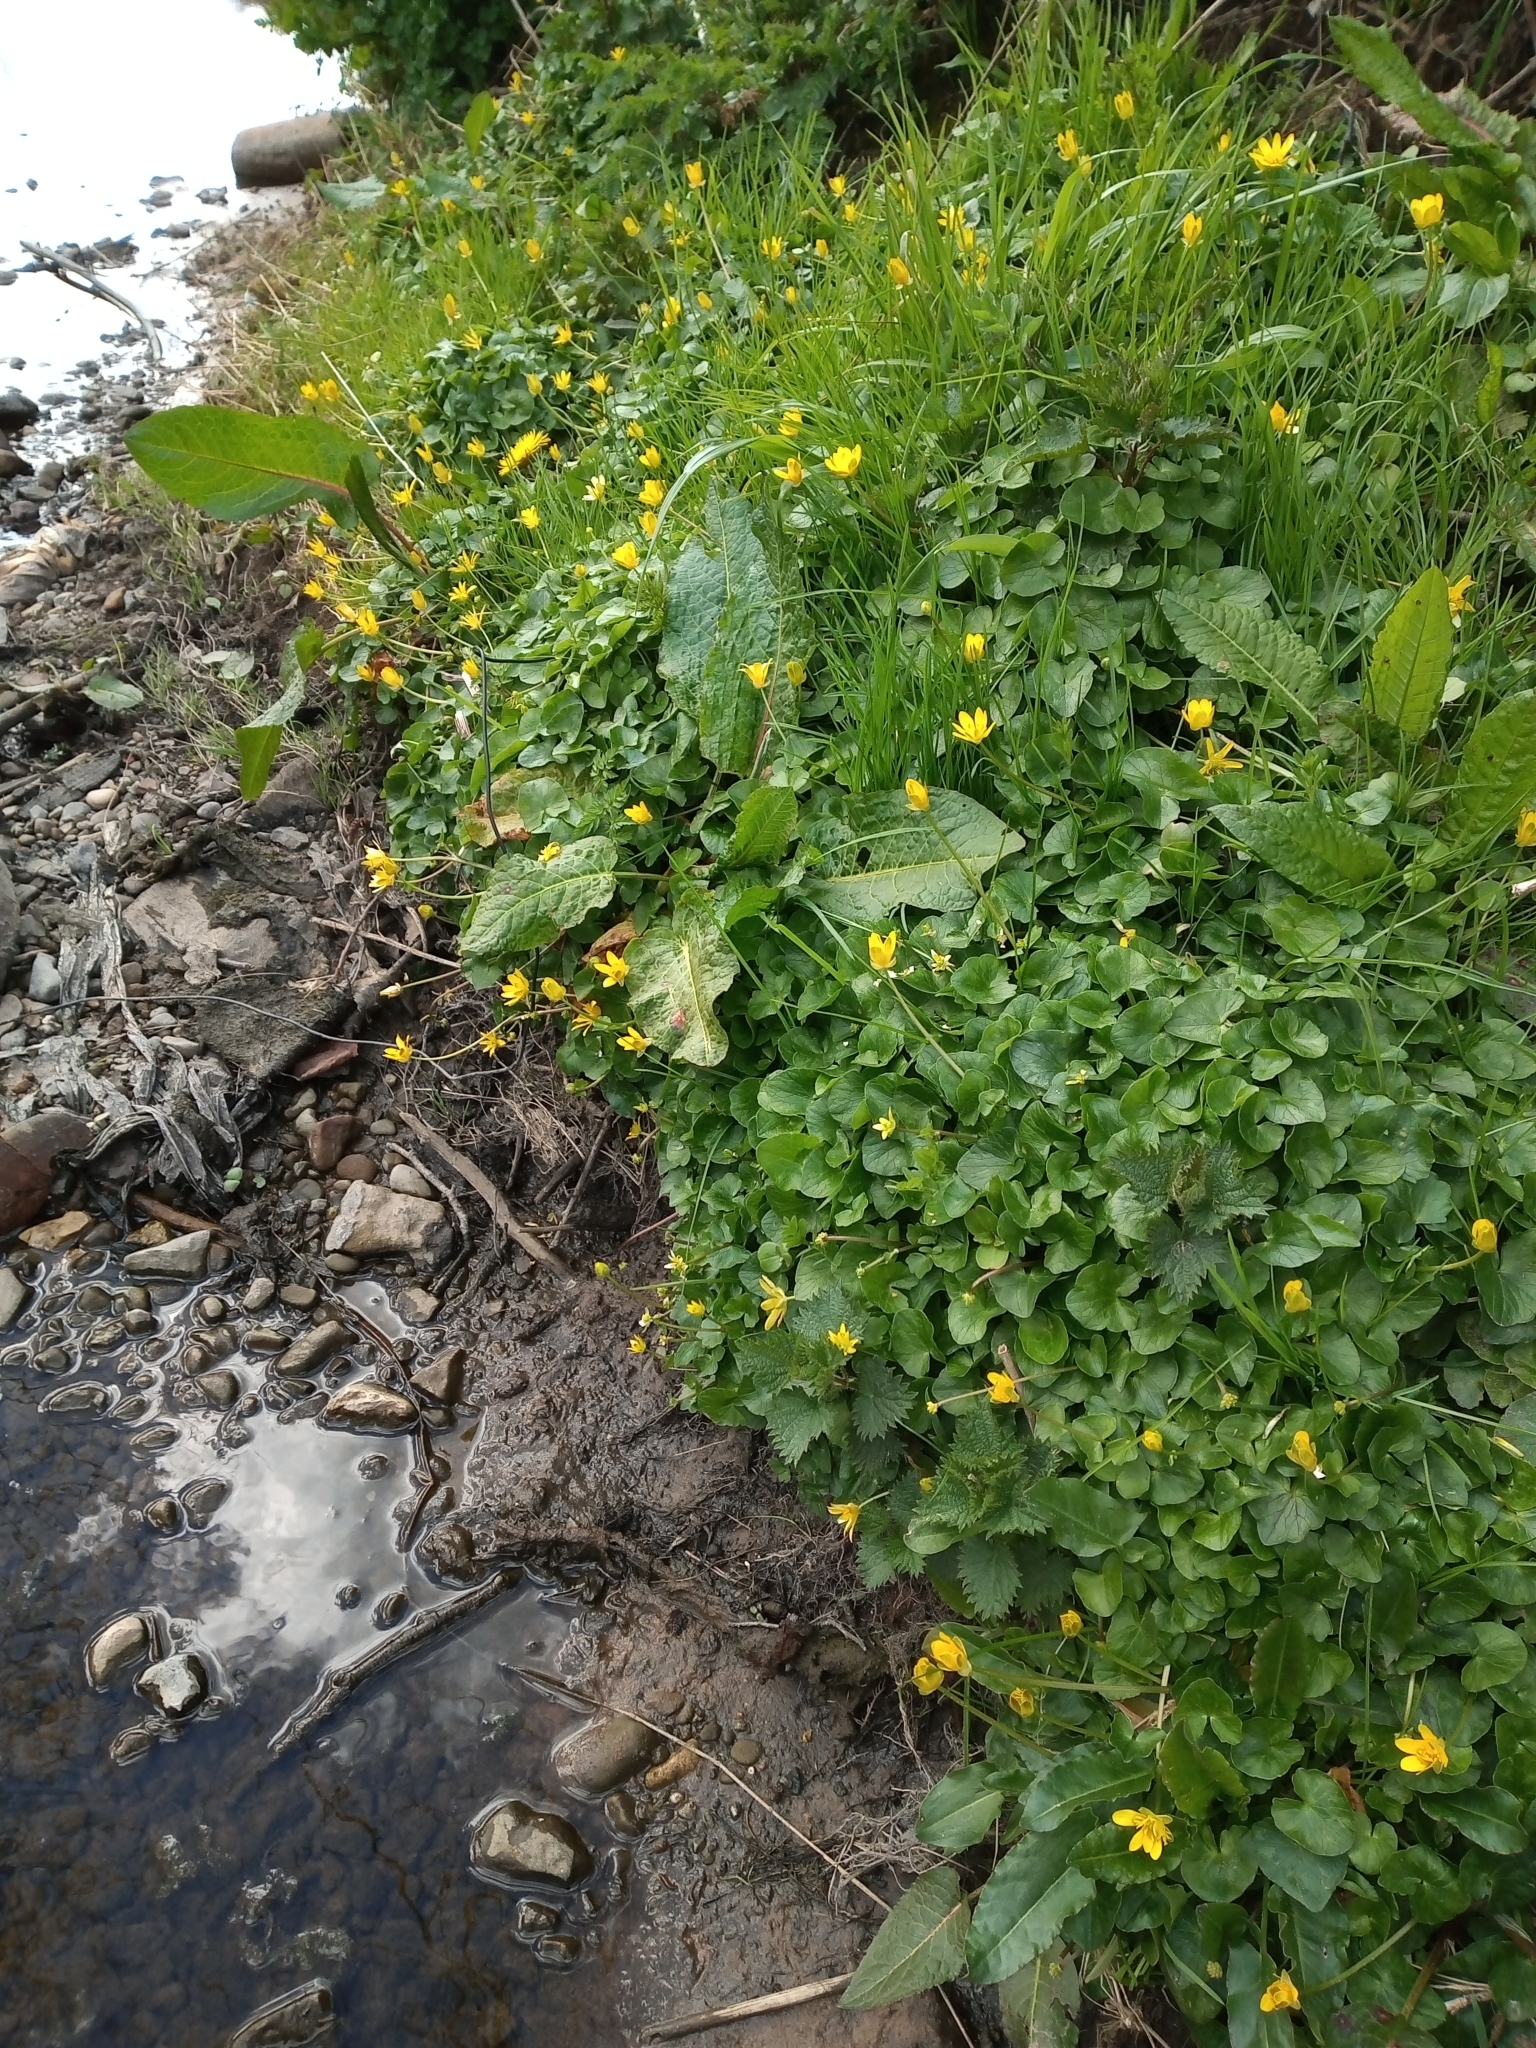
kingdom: Plantae
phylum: Tracheophyta
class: Magnoliopsida
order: Ranunculales
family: Ranunculaceae
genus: Ficaria
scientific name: Ficaria verna
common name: Lesser celandine
